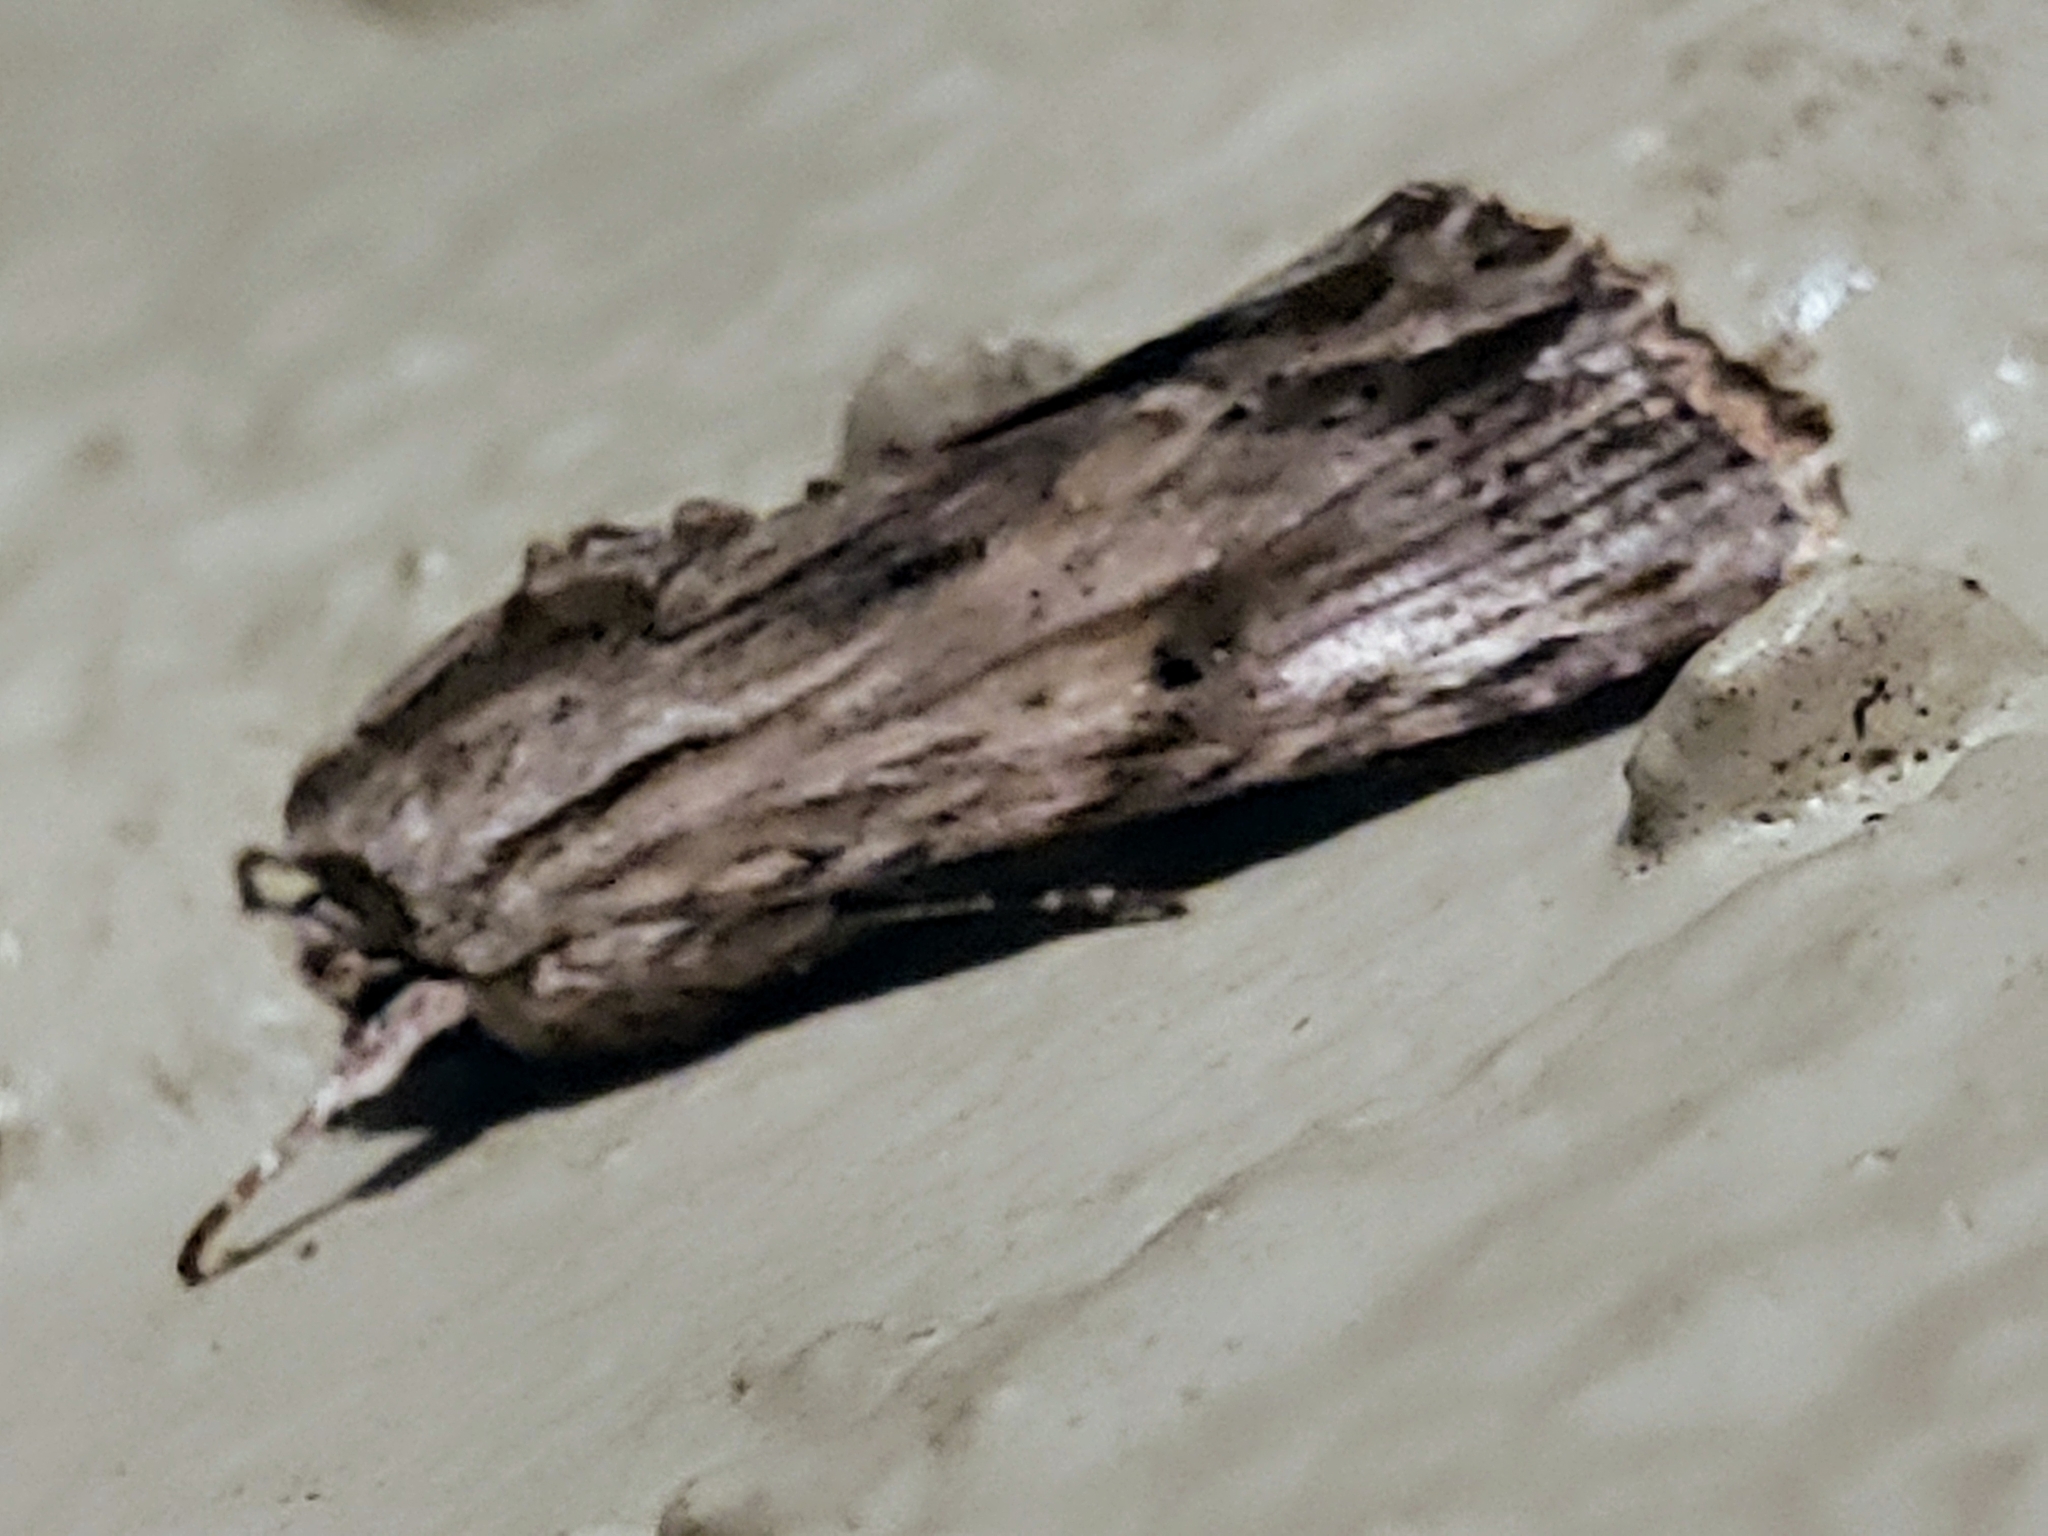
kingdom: Animalia
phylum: Arthropoda
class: Insecta
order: Lepidoptera
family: Noctuidae
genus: Spodoptera
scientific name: Spodoptera eridania
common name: Southern army worm
